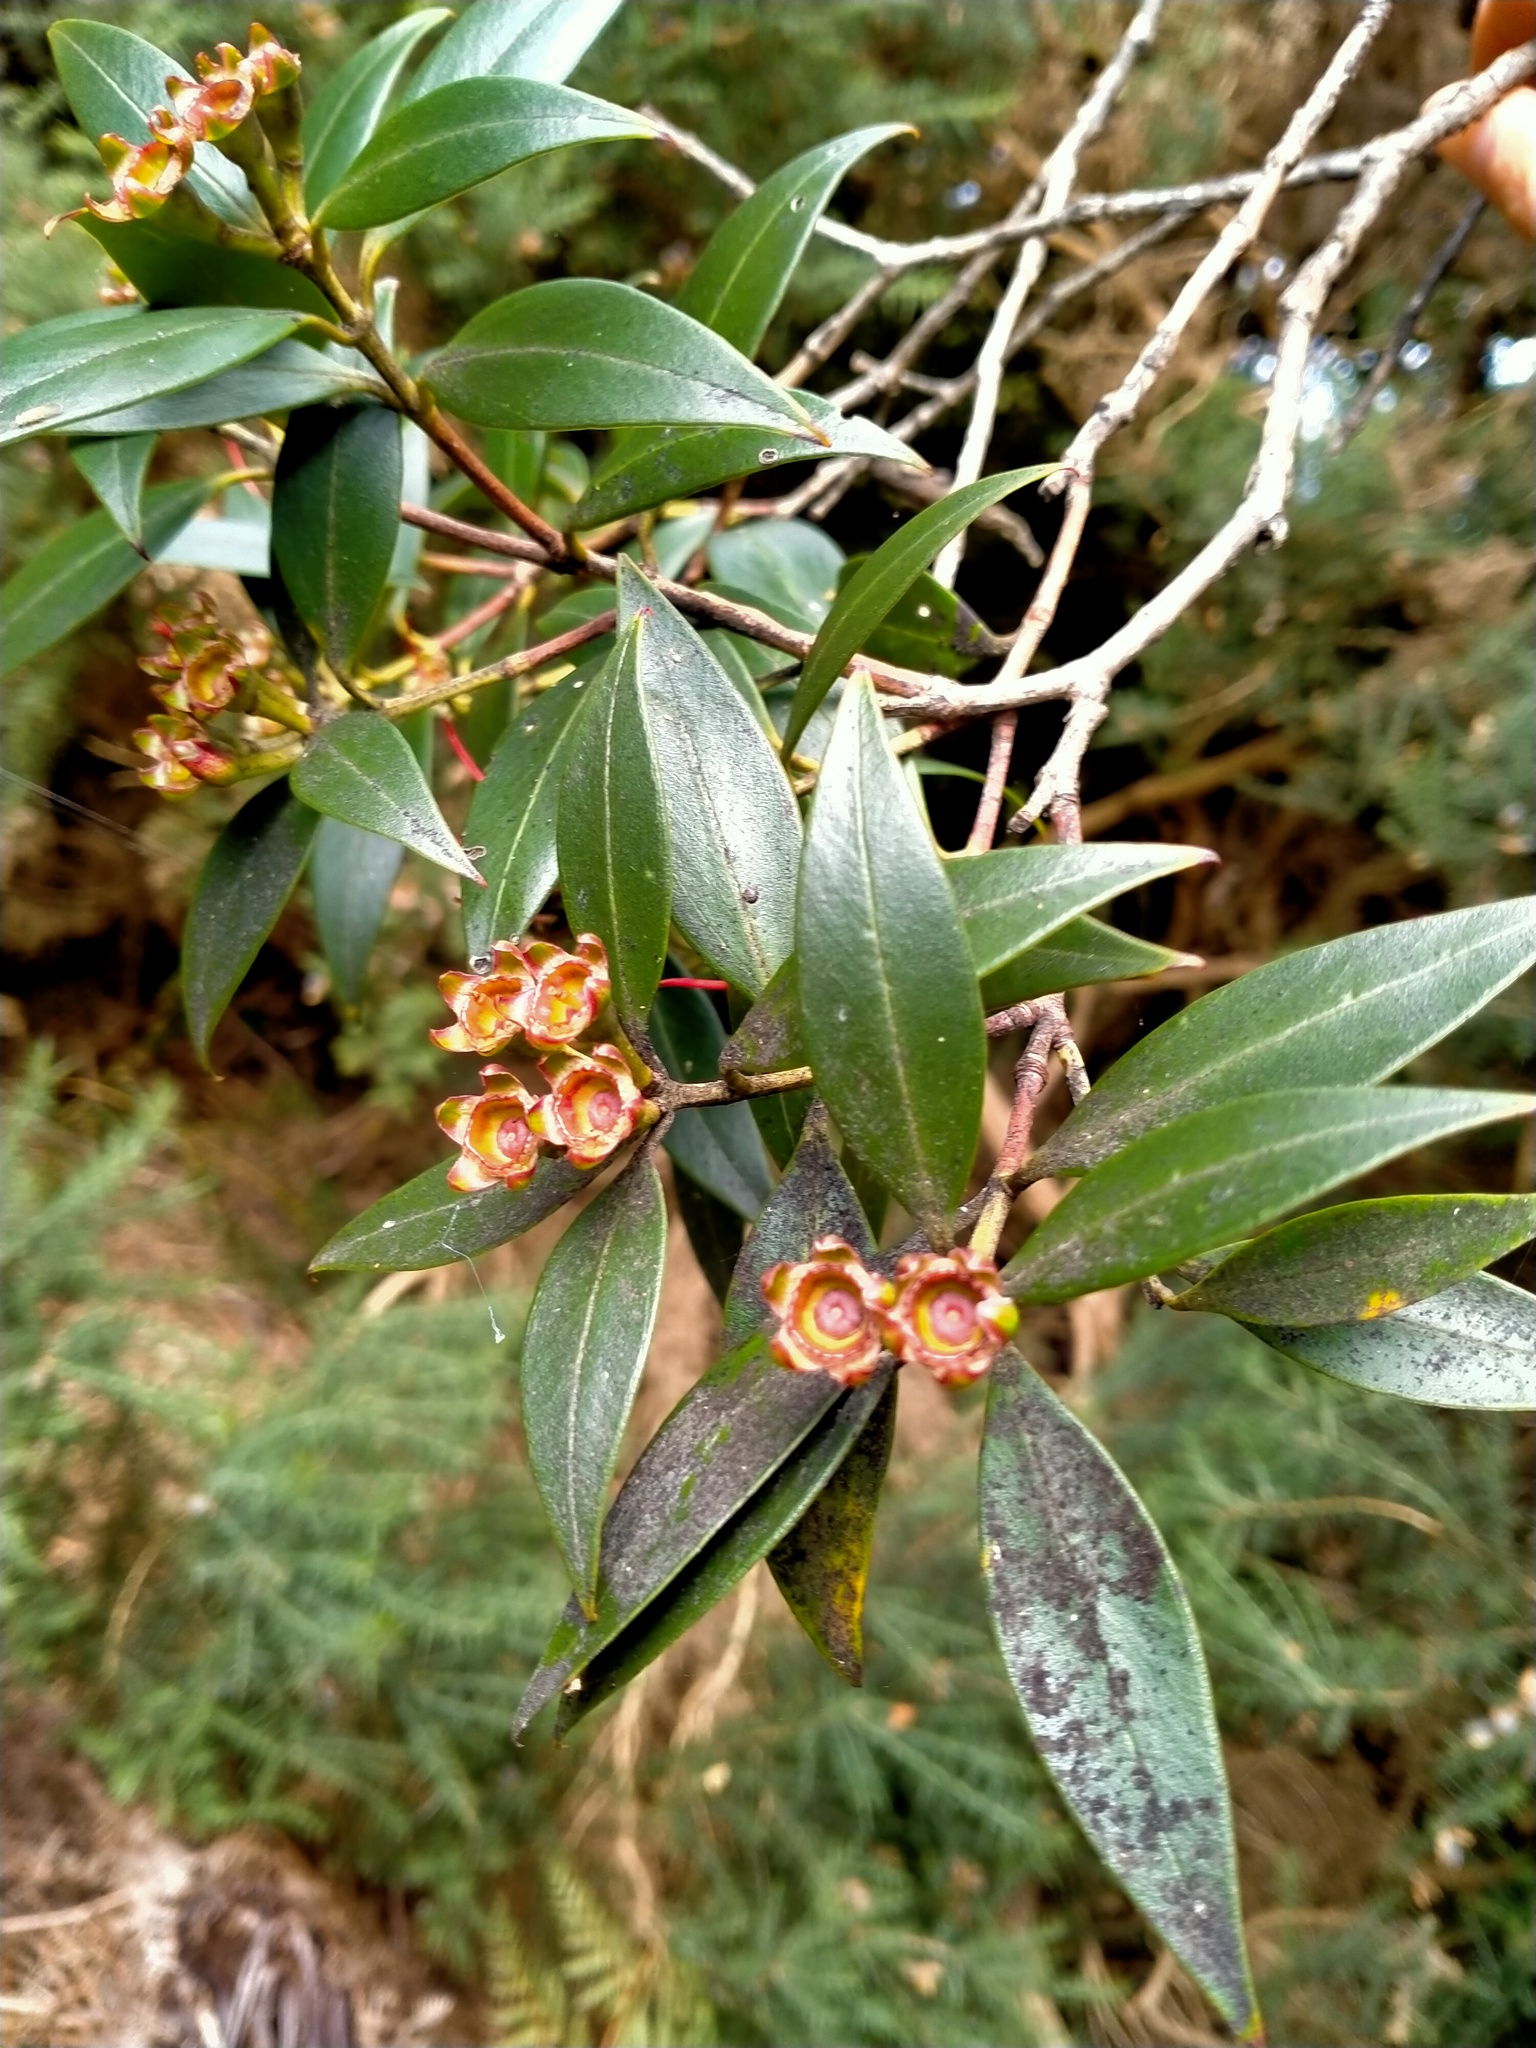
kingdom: Plantae
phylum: Tracheophyta
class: Magnoliopsida
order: Myrtales
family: Myrtaceae
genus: Metrosideros
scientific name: Metrosideros umbellata
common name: Southern rata
